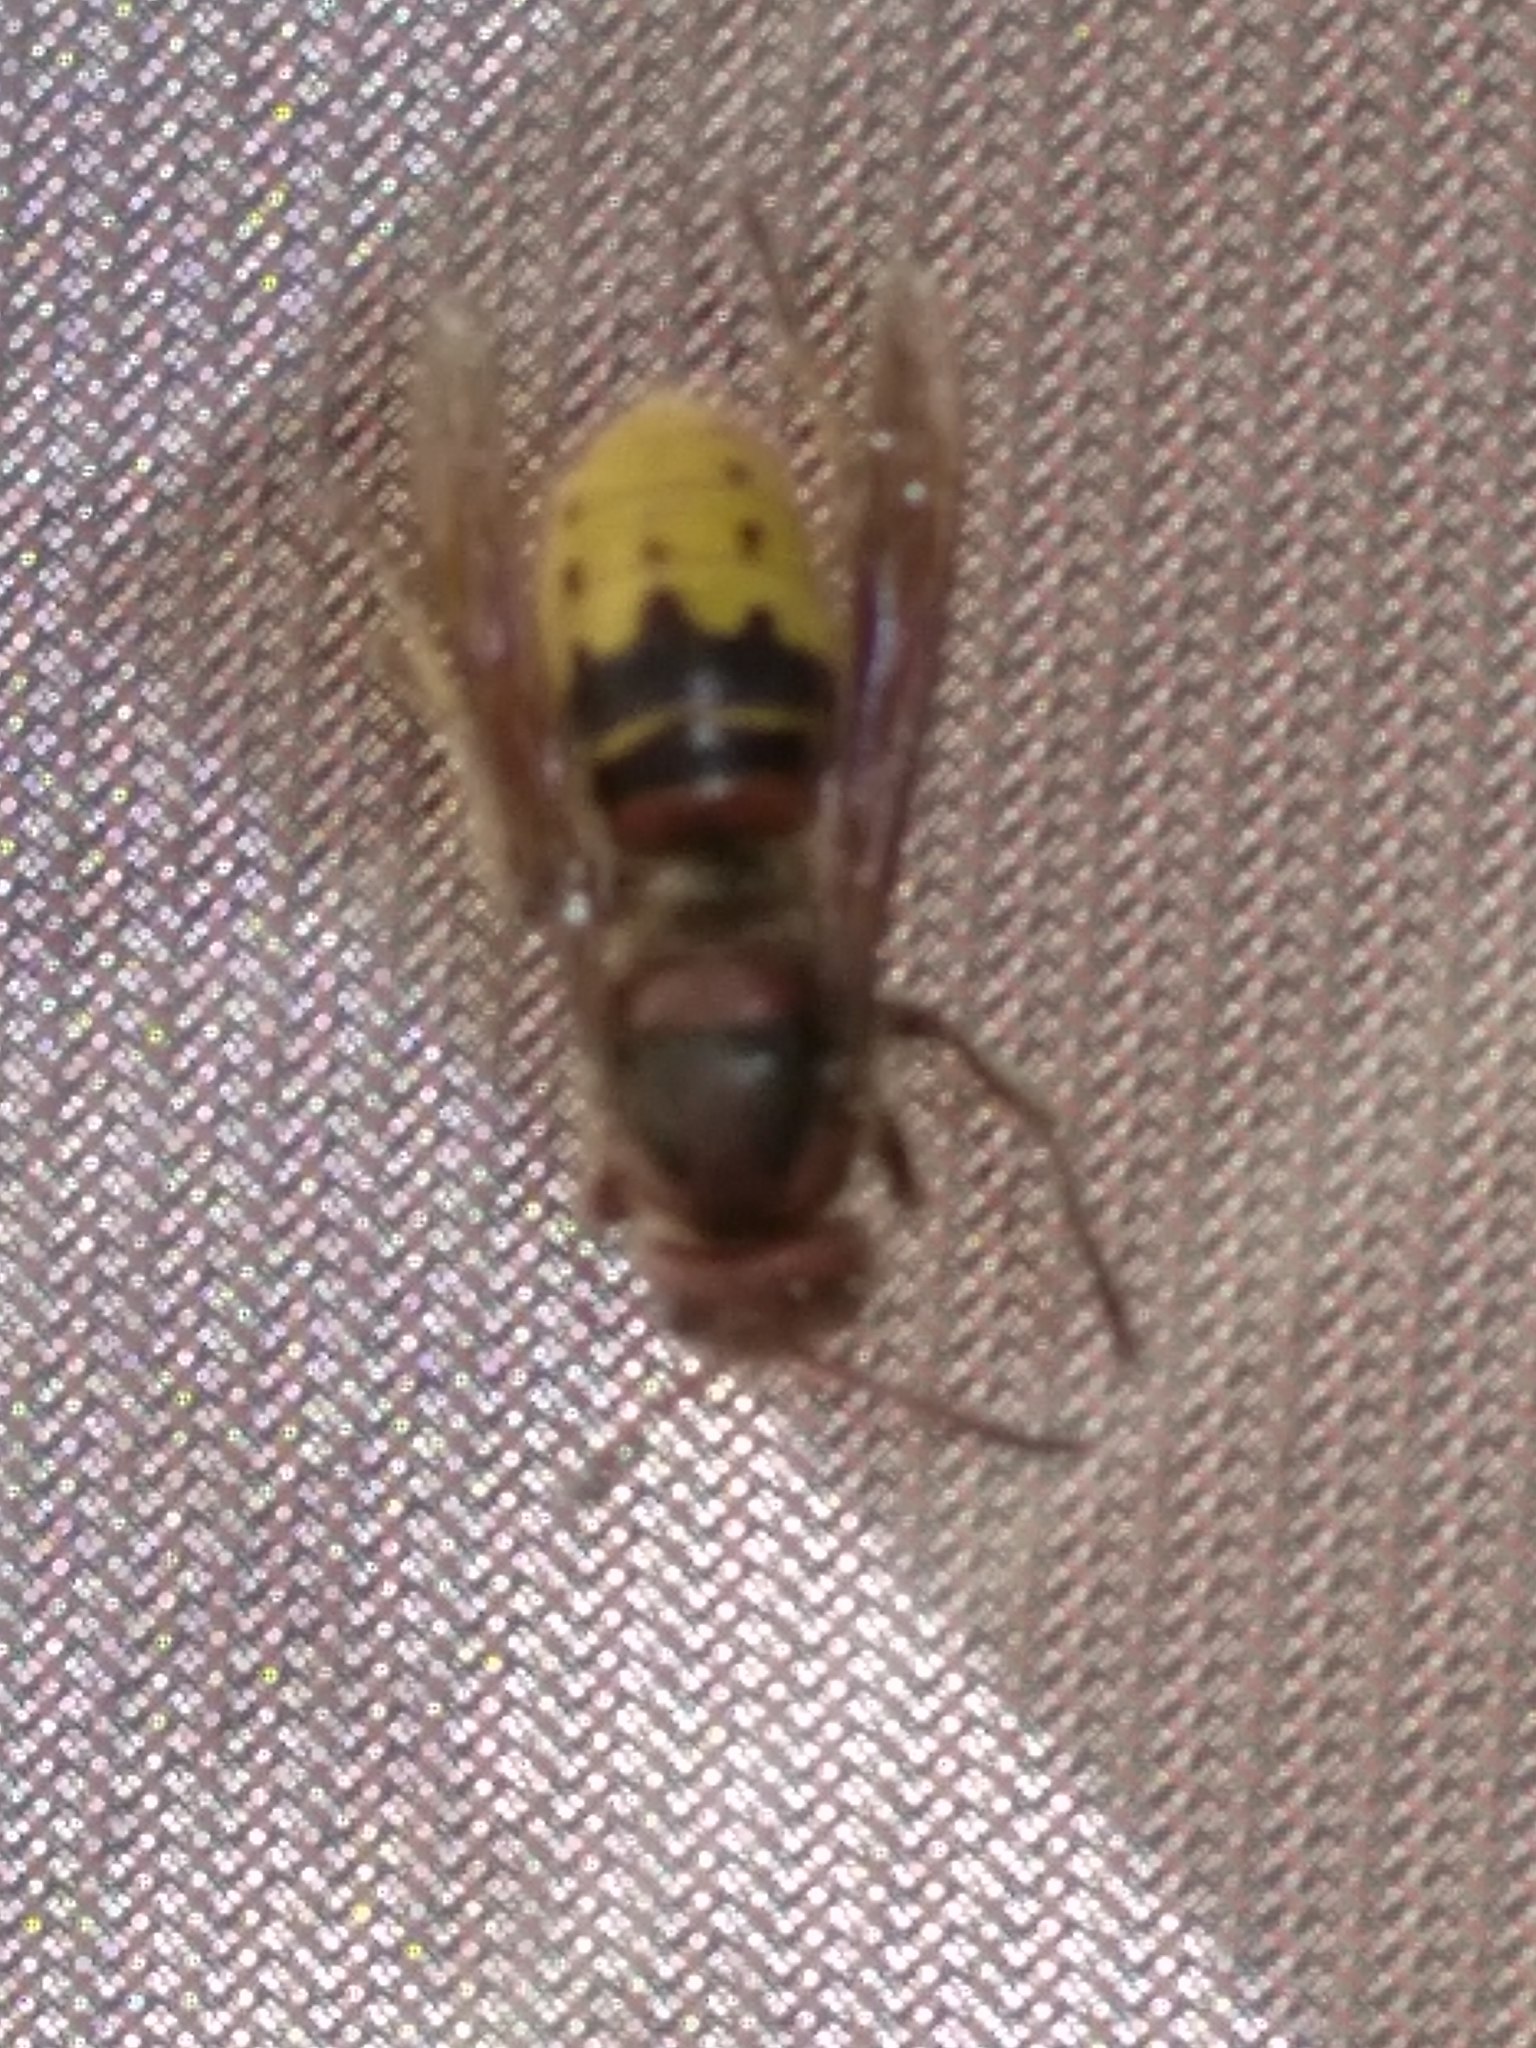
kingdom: Animalia
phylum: Arthropoda
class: Insecta
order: Hymenoptera
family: Vespidae
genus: Vespa
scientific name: Vespa crabro
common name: Hornet
